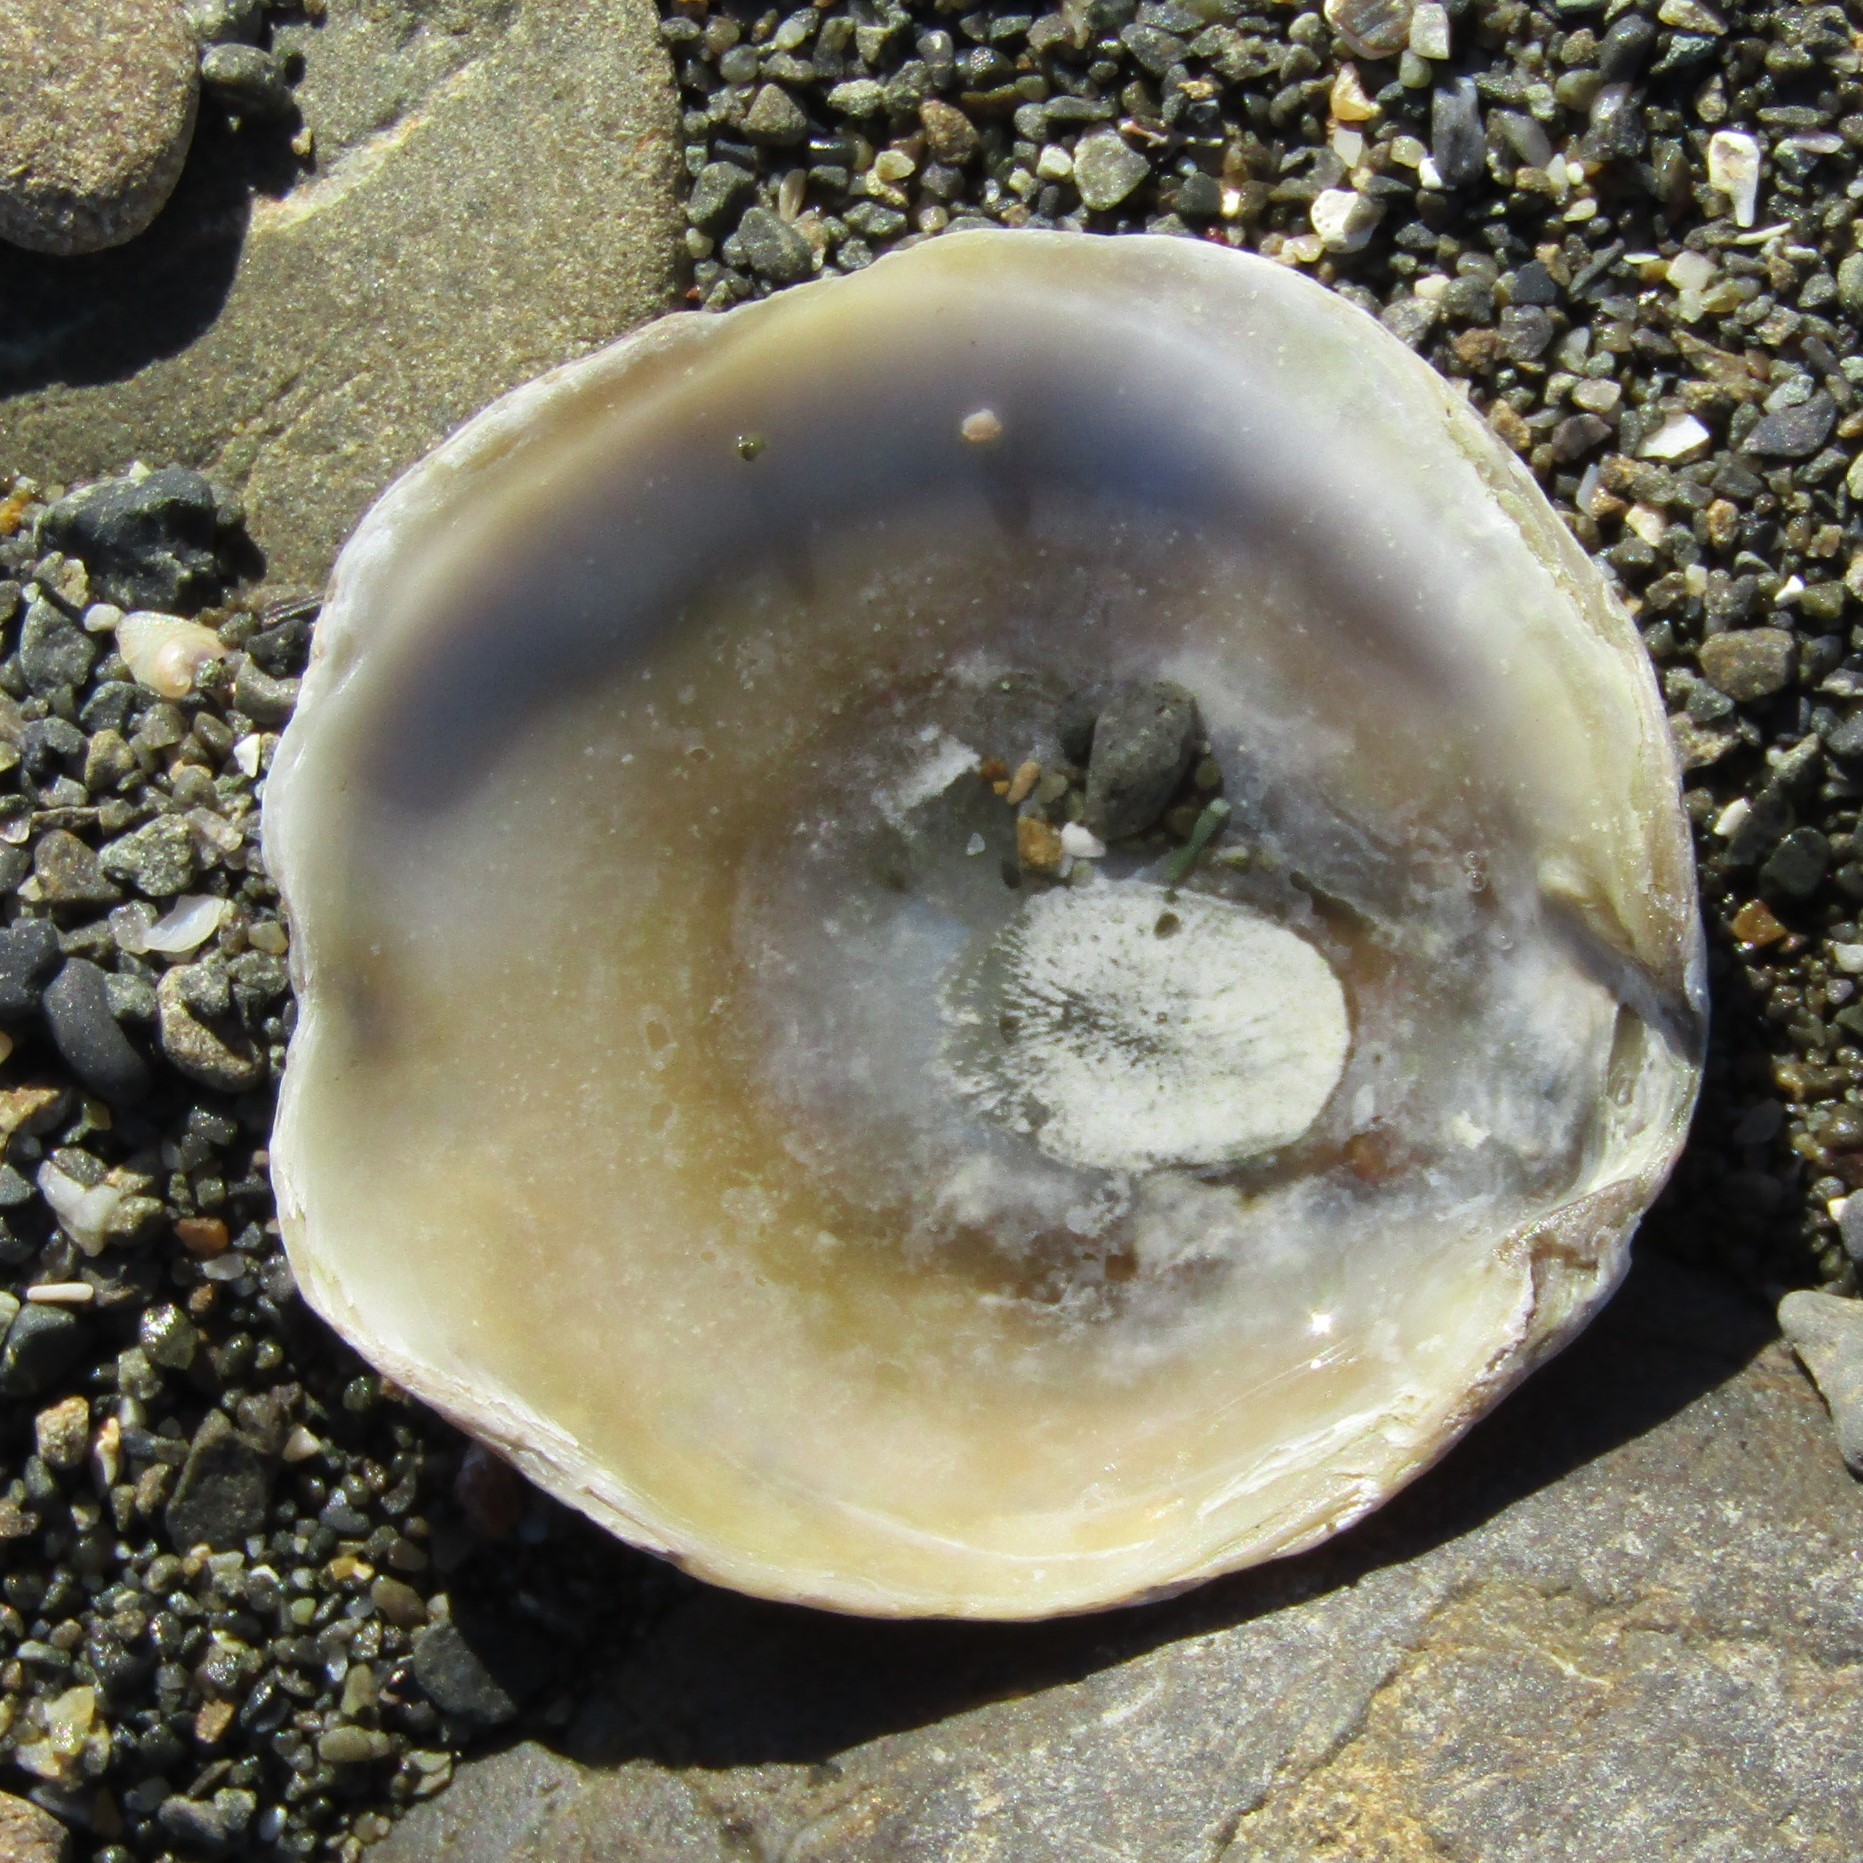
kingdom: Animalia
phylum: Mollusca
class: Bivalvia
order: Ostreida
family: Ostreidae
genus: Ostrea
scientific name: Ostrea chilensis
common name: Chilean oyster
